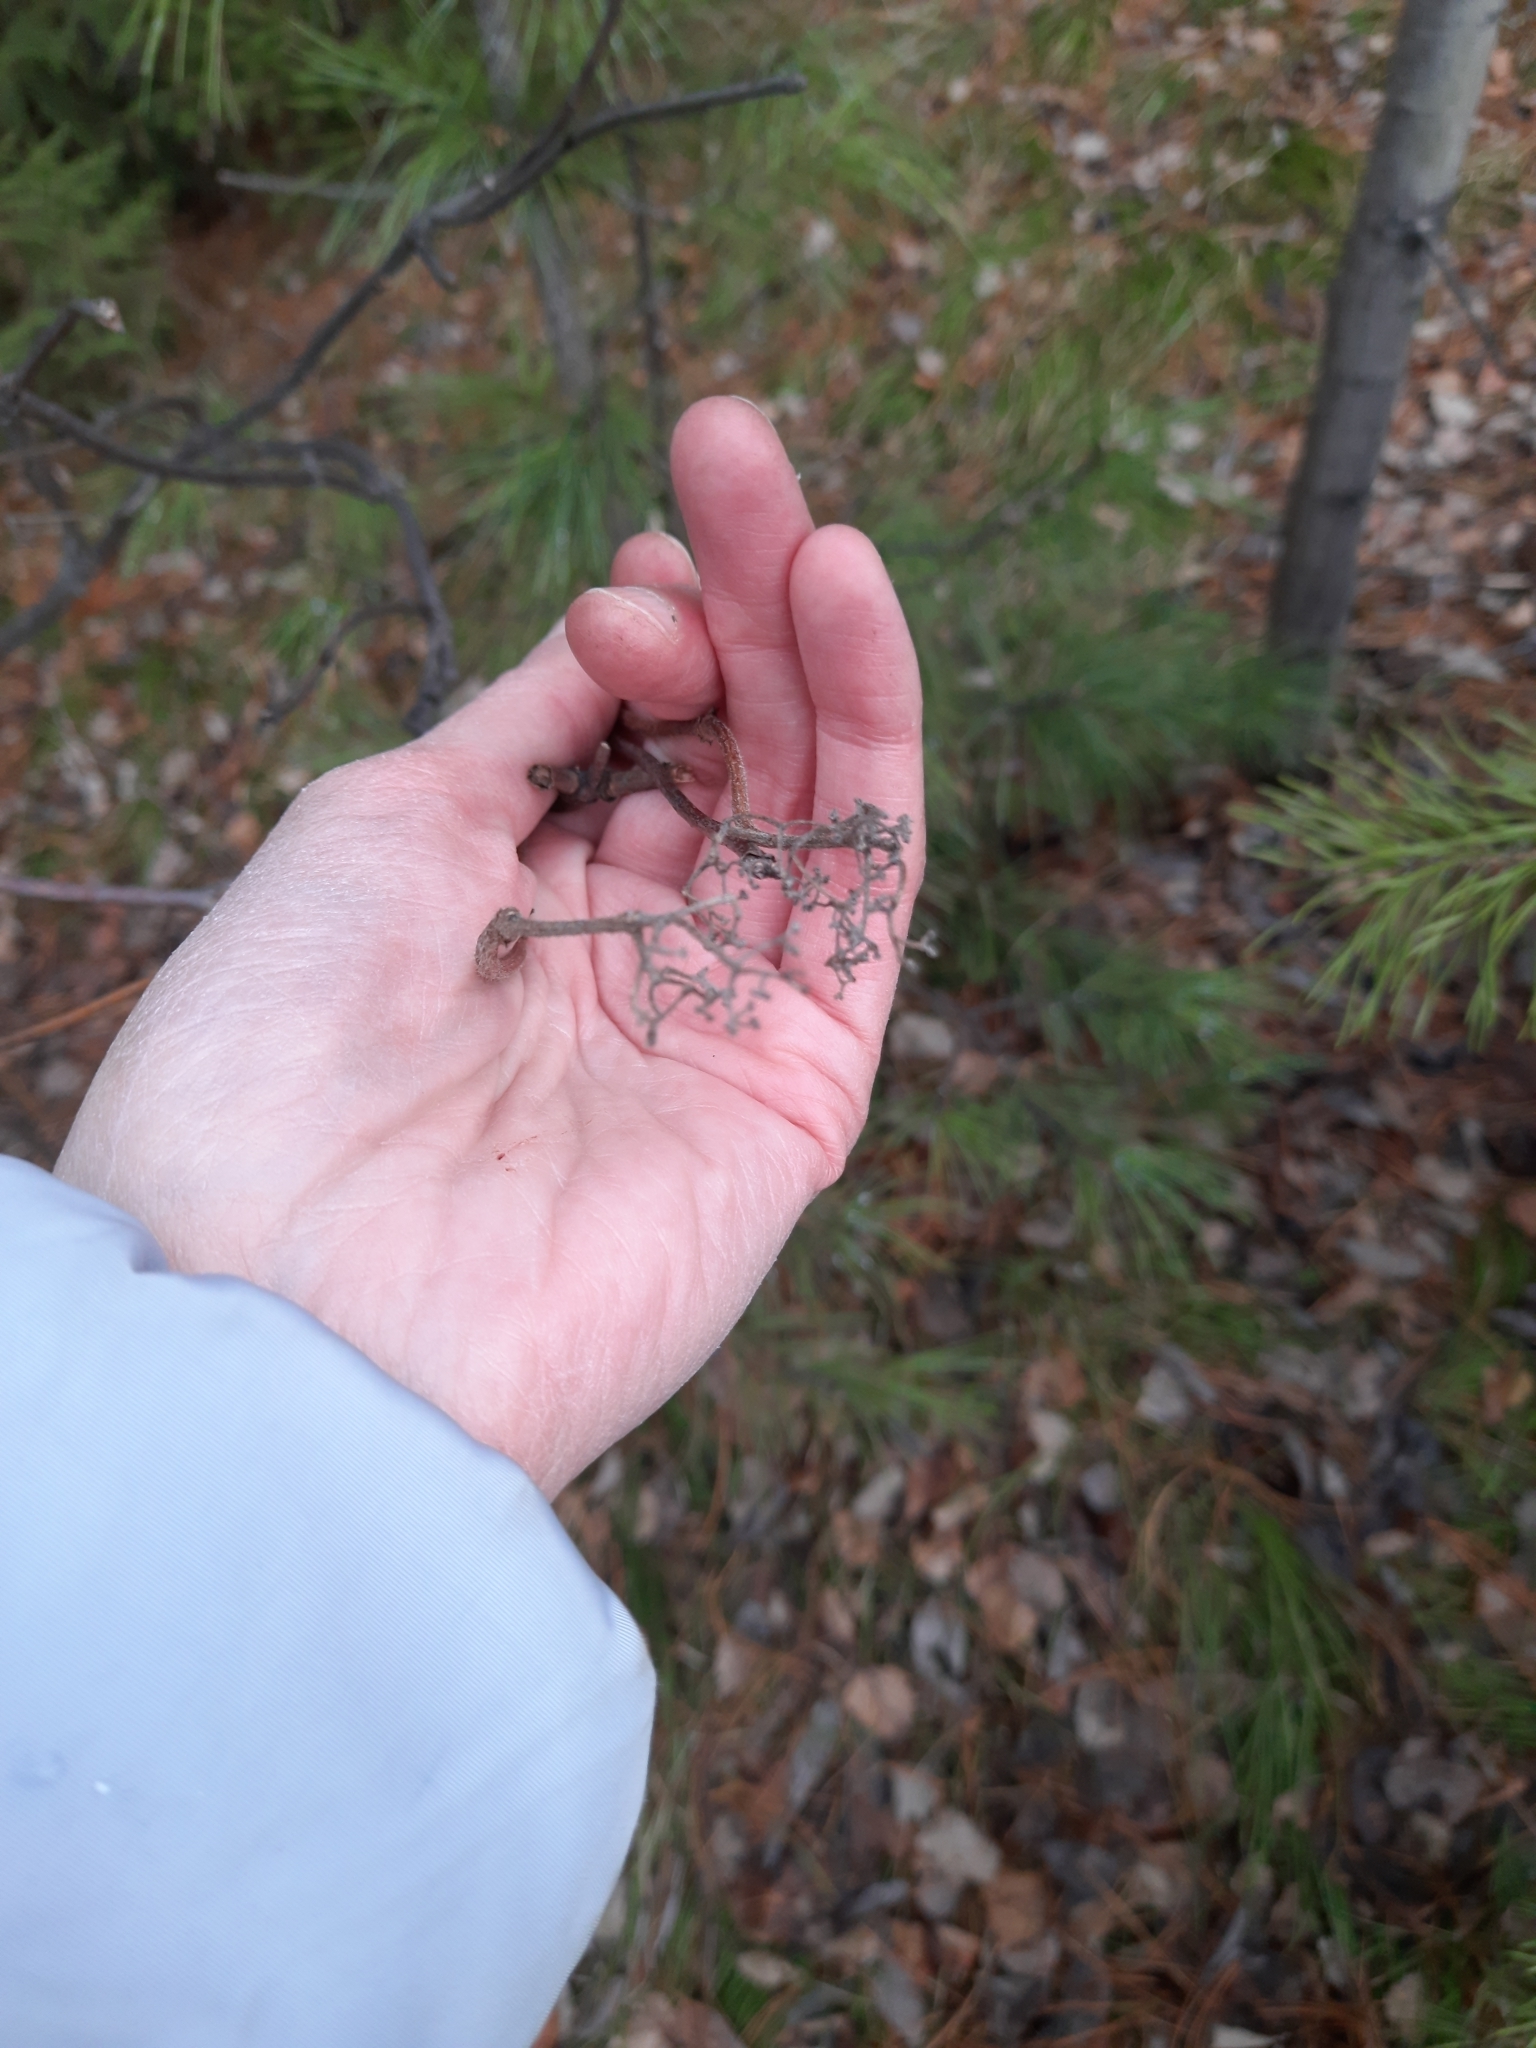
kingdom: Plantae
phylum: Tracheophyta
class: Magnoliopsida
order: Dipsacales
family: Viburnaceae
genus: Sambucus
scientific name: Sambucus sibirica
